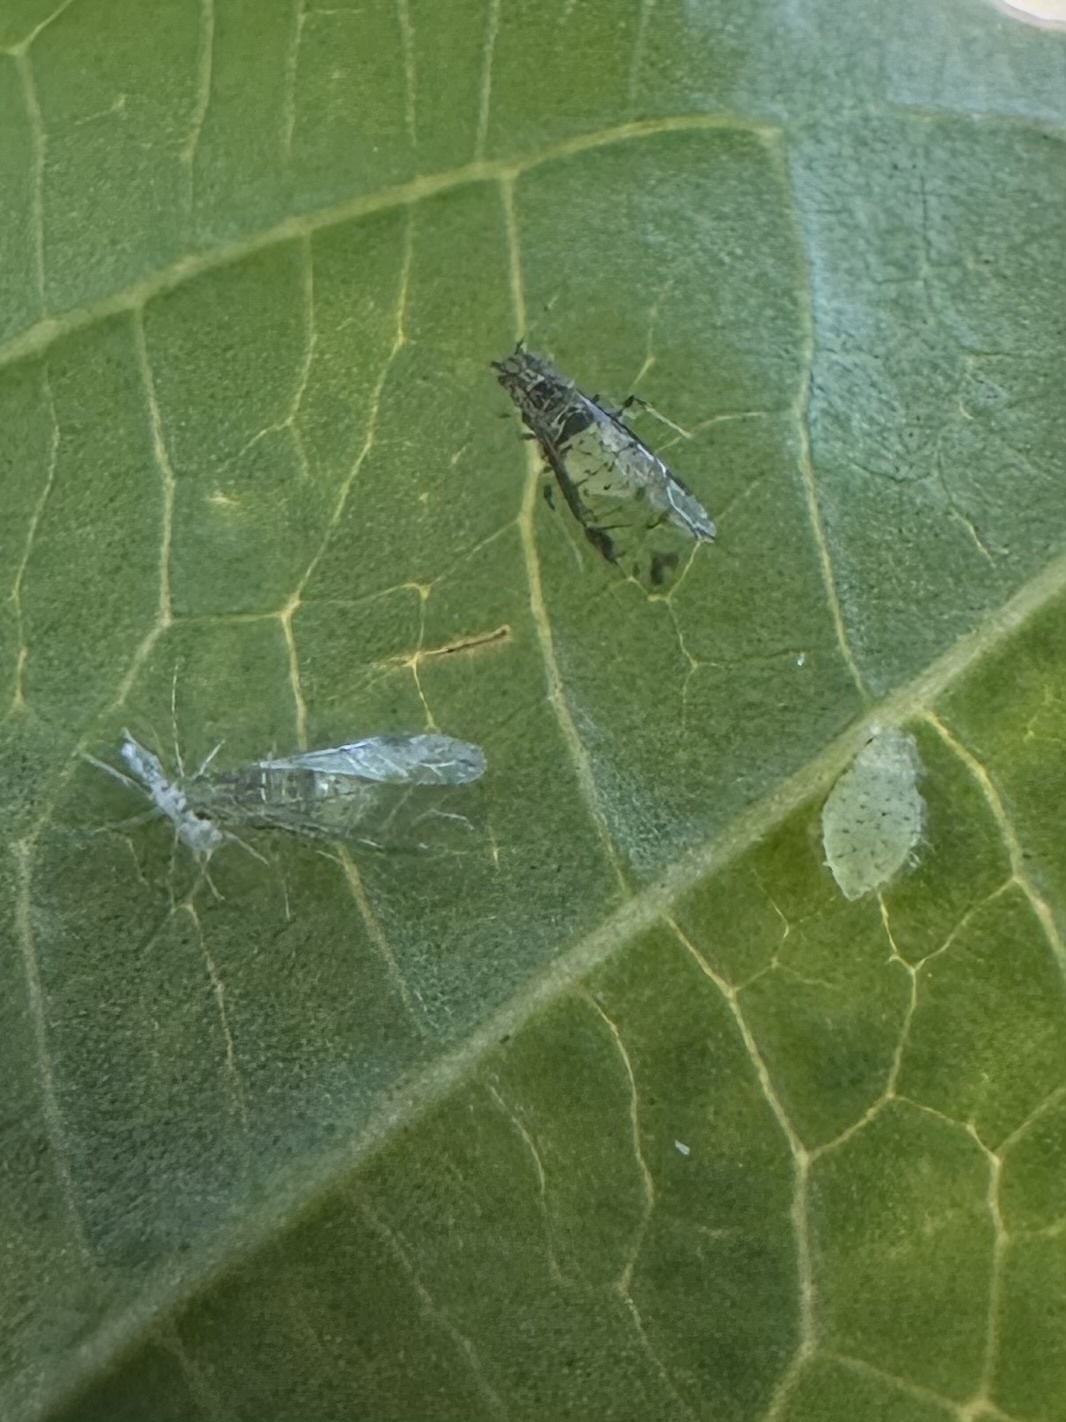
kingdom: Animalia
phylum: Arthropoda
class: Insecta
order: Hemiptera
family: Aphididae
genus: Sarucallis
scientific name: Sarucallis kahawaluokalani
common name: Crapemyrtle aphid
